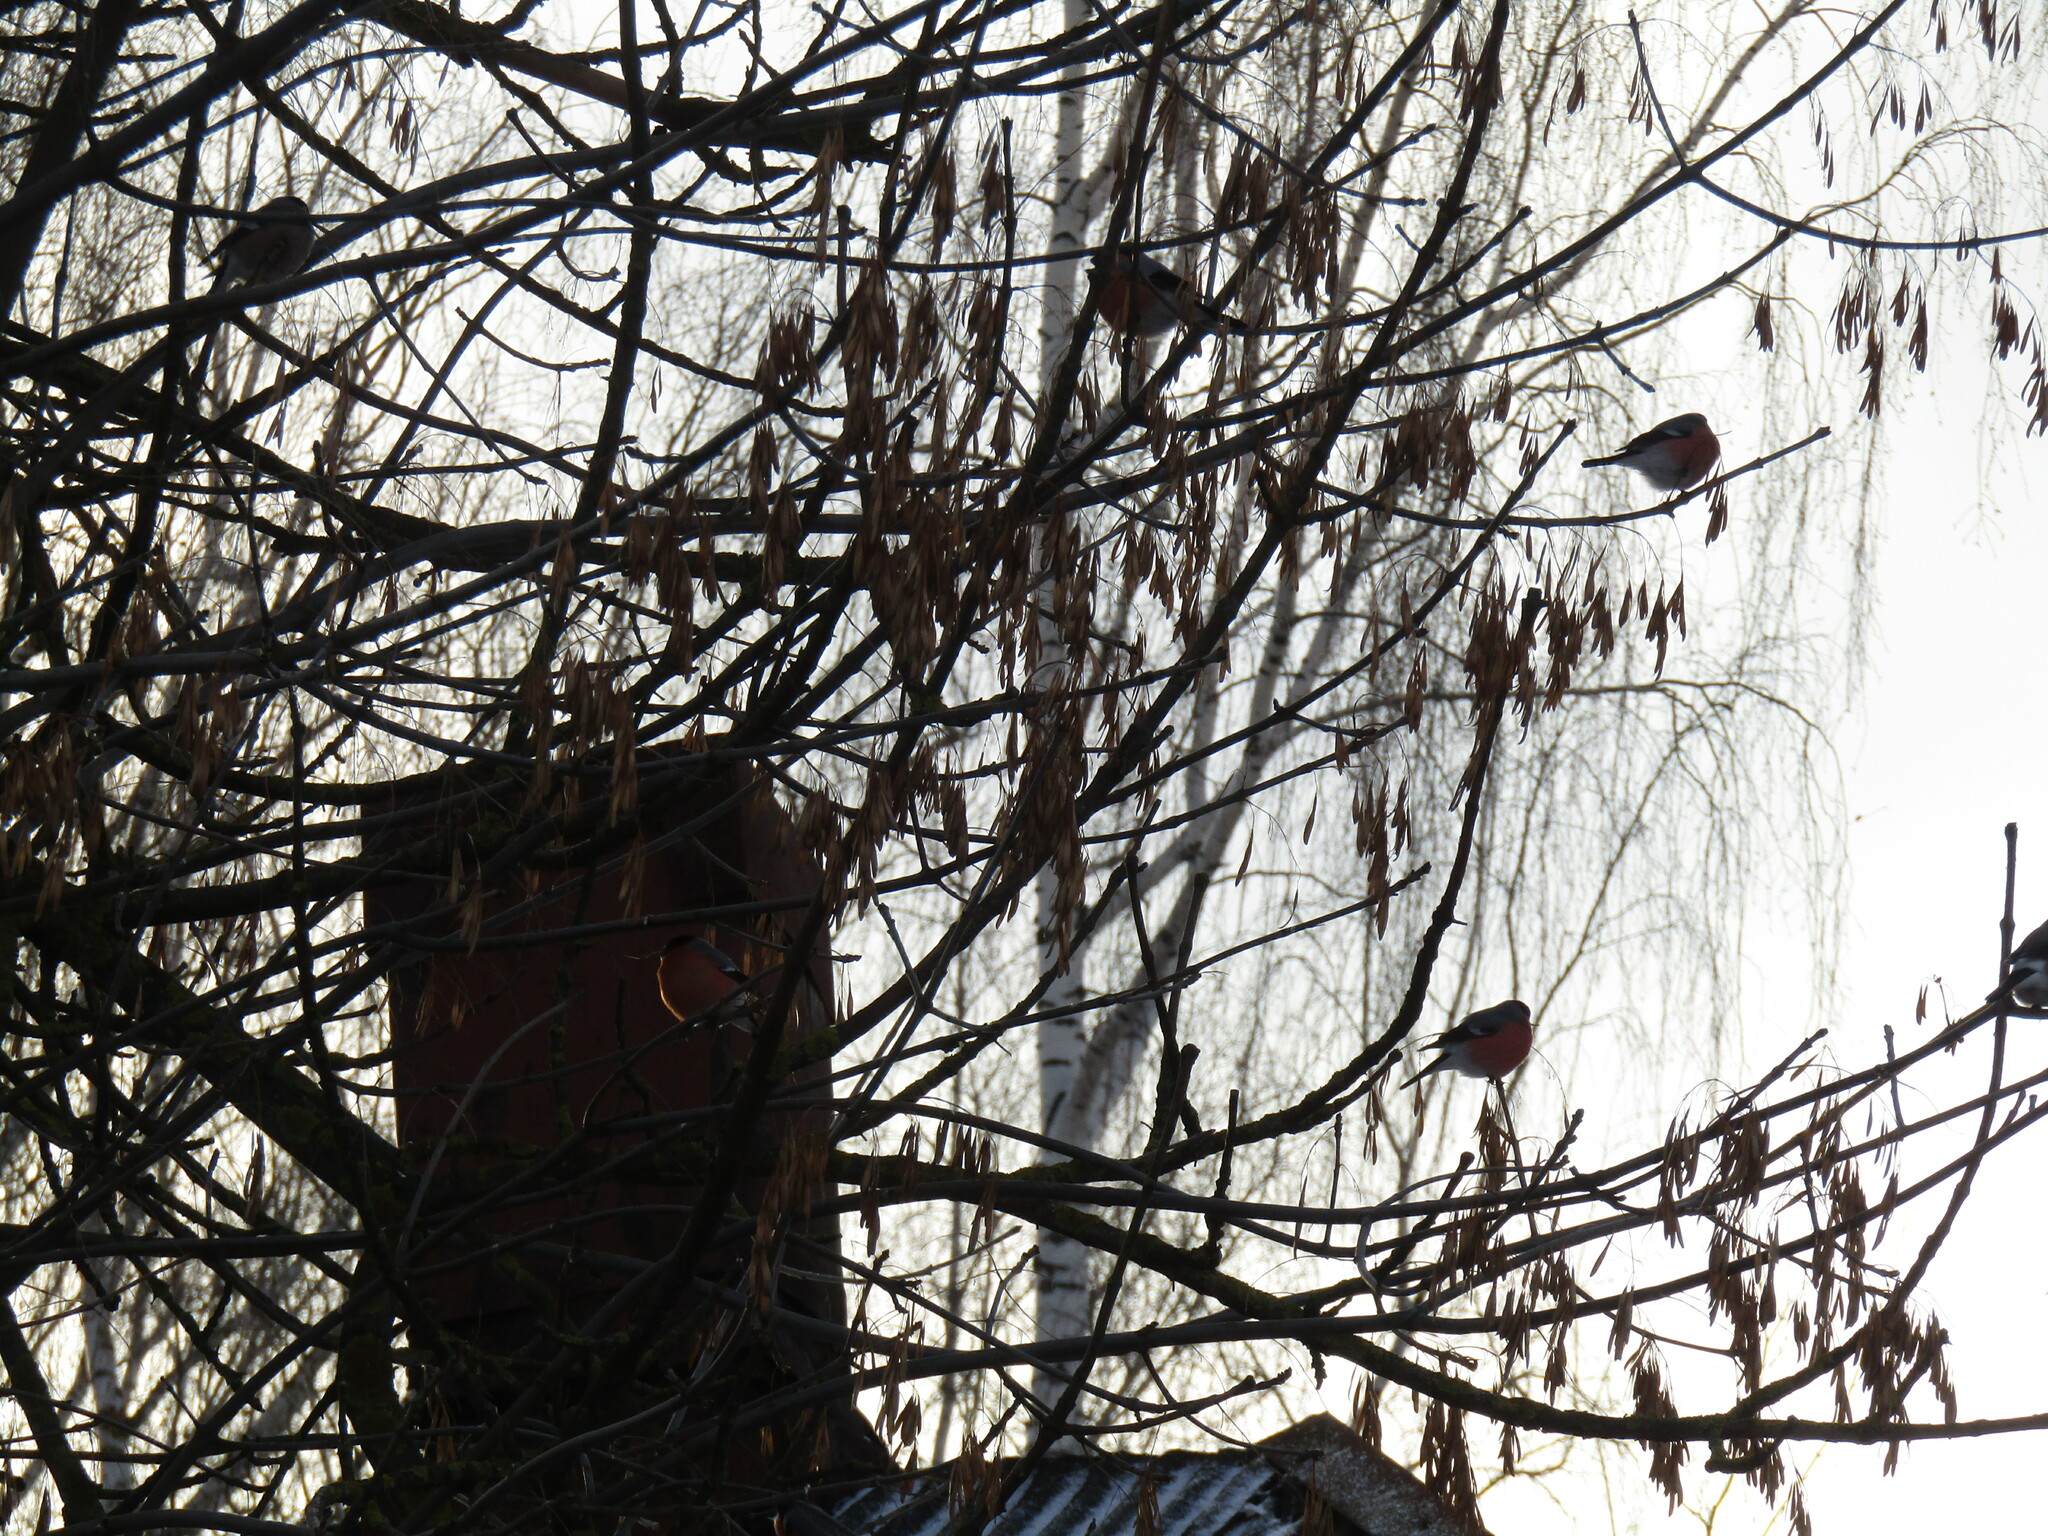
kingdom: Animalia
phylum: Chordata
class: Aves
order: Passeriformes
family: Fringillidae
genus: Pyrrhula
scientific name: Pyrrhula pyrrhula
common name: Eurasian bullfinch
